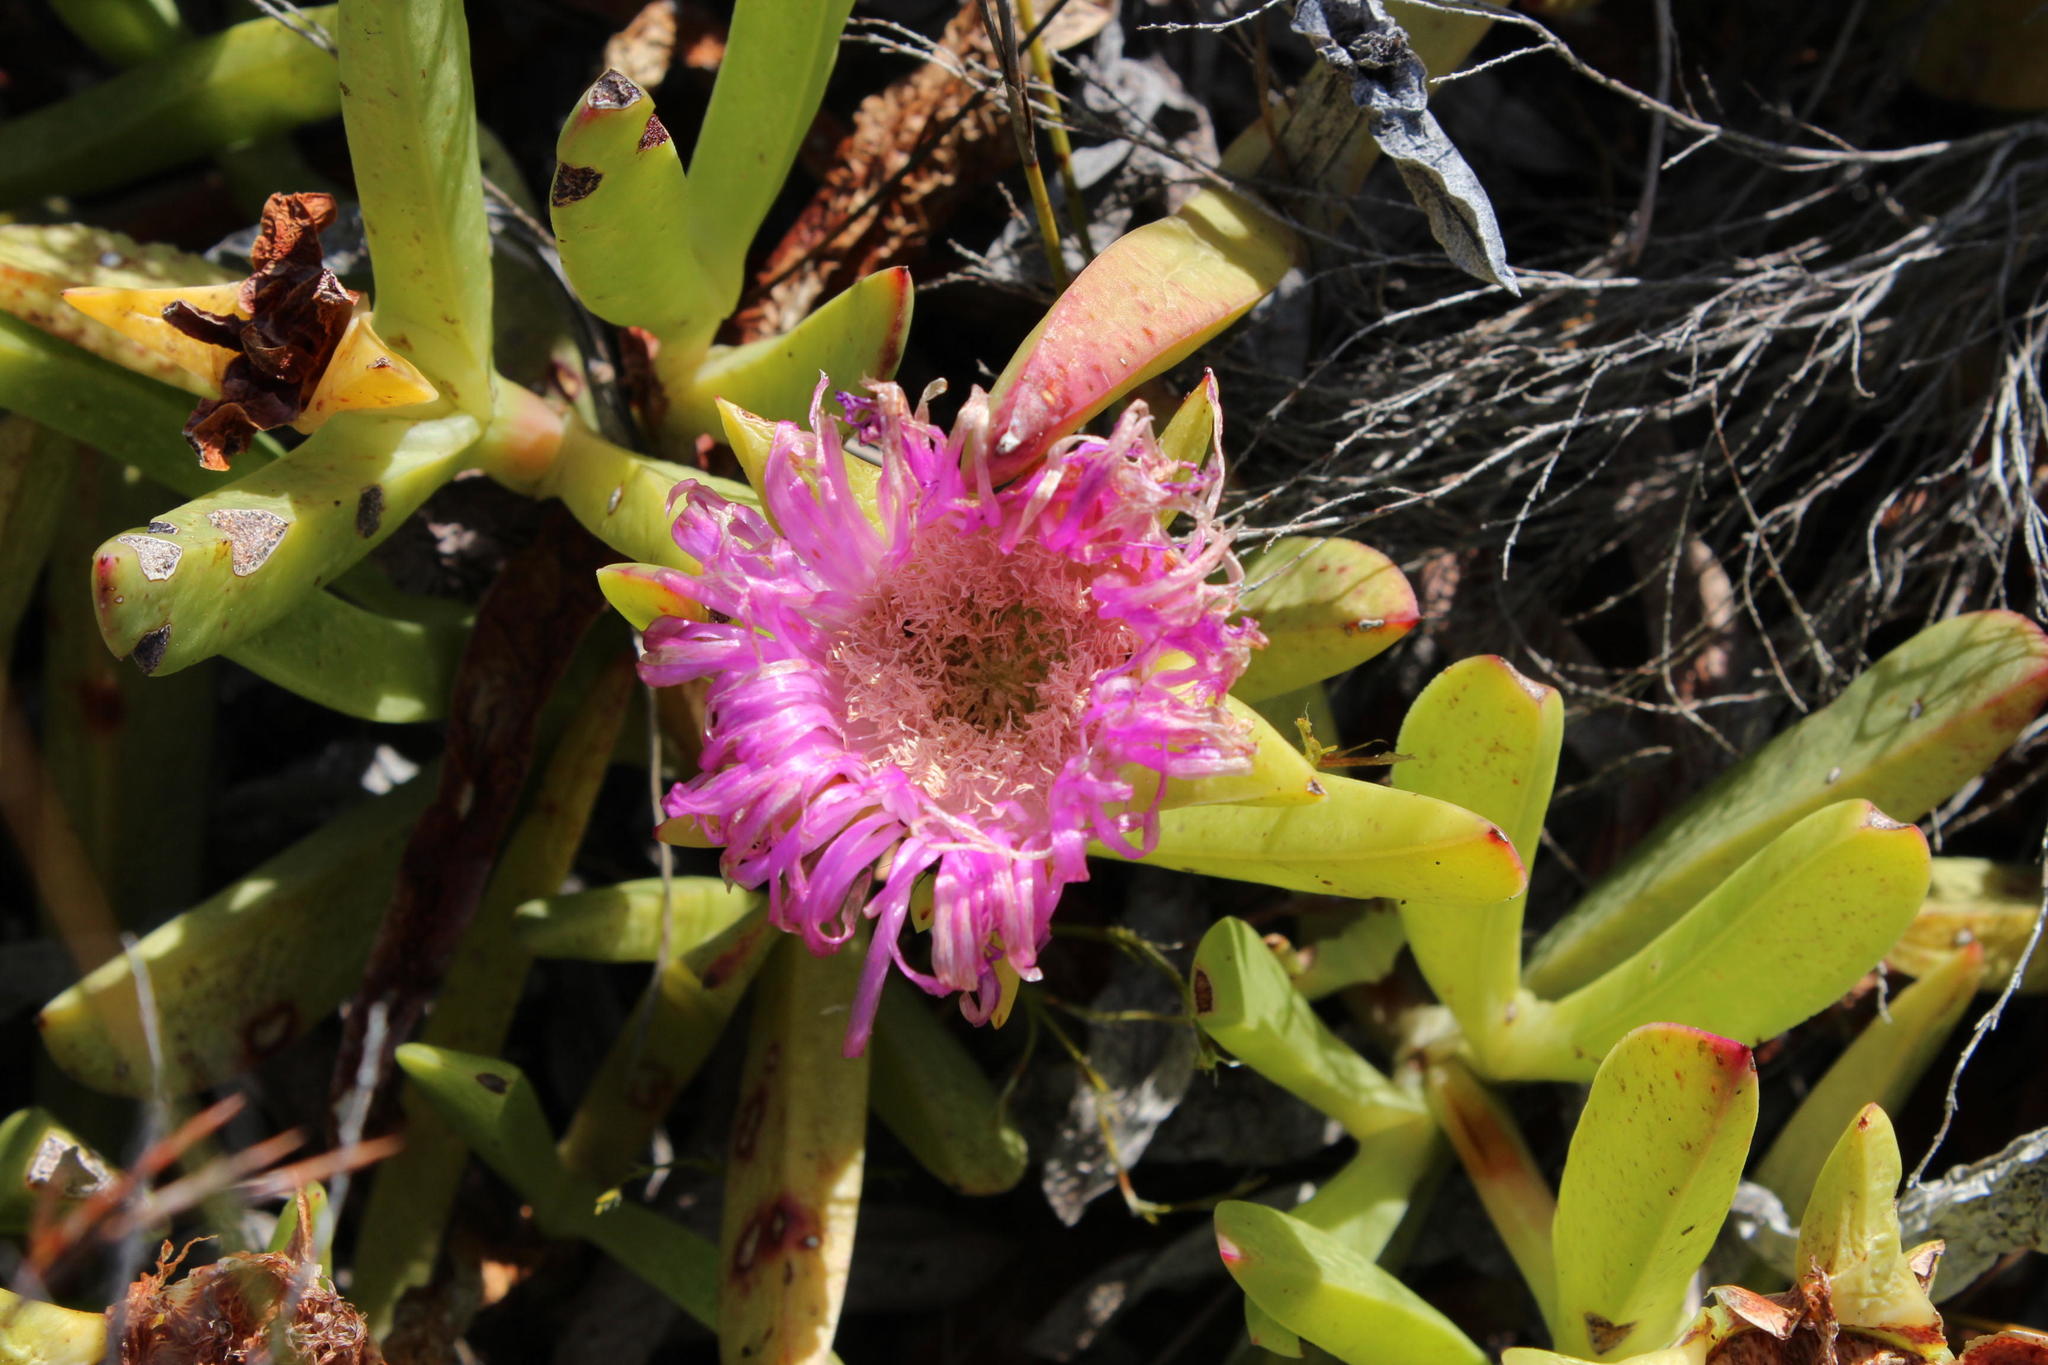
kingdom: Plantae
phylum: Tracheophyta
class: Magnoliopsida
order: Caryophyllales
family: Aizoaceae
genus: Carpobrotus
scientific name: Carpobrotus acinaciformis
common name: Sally-my-handsome
